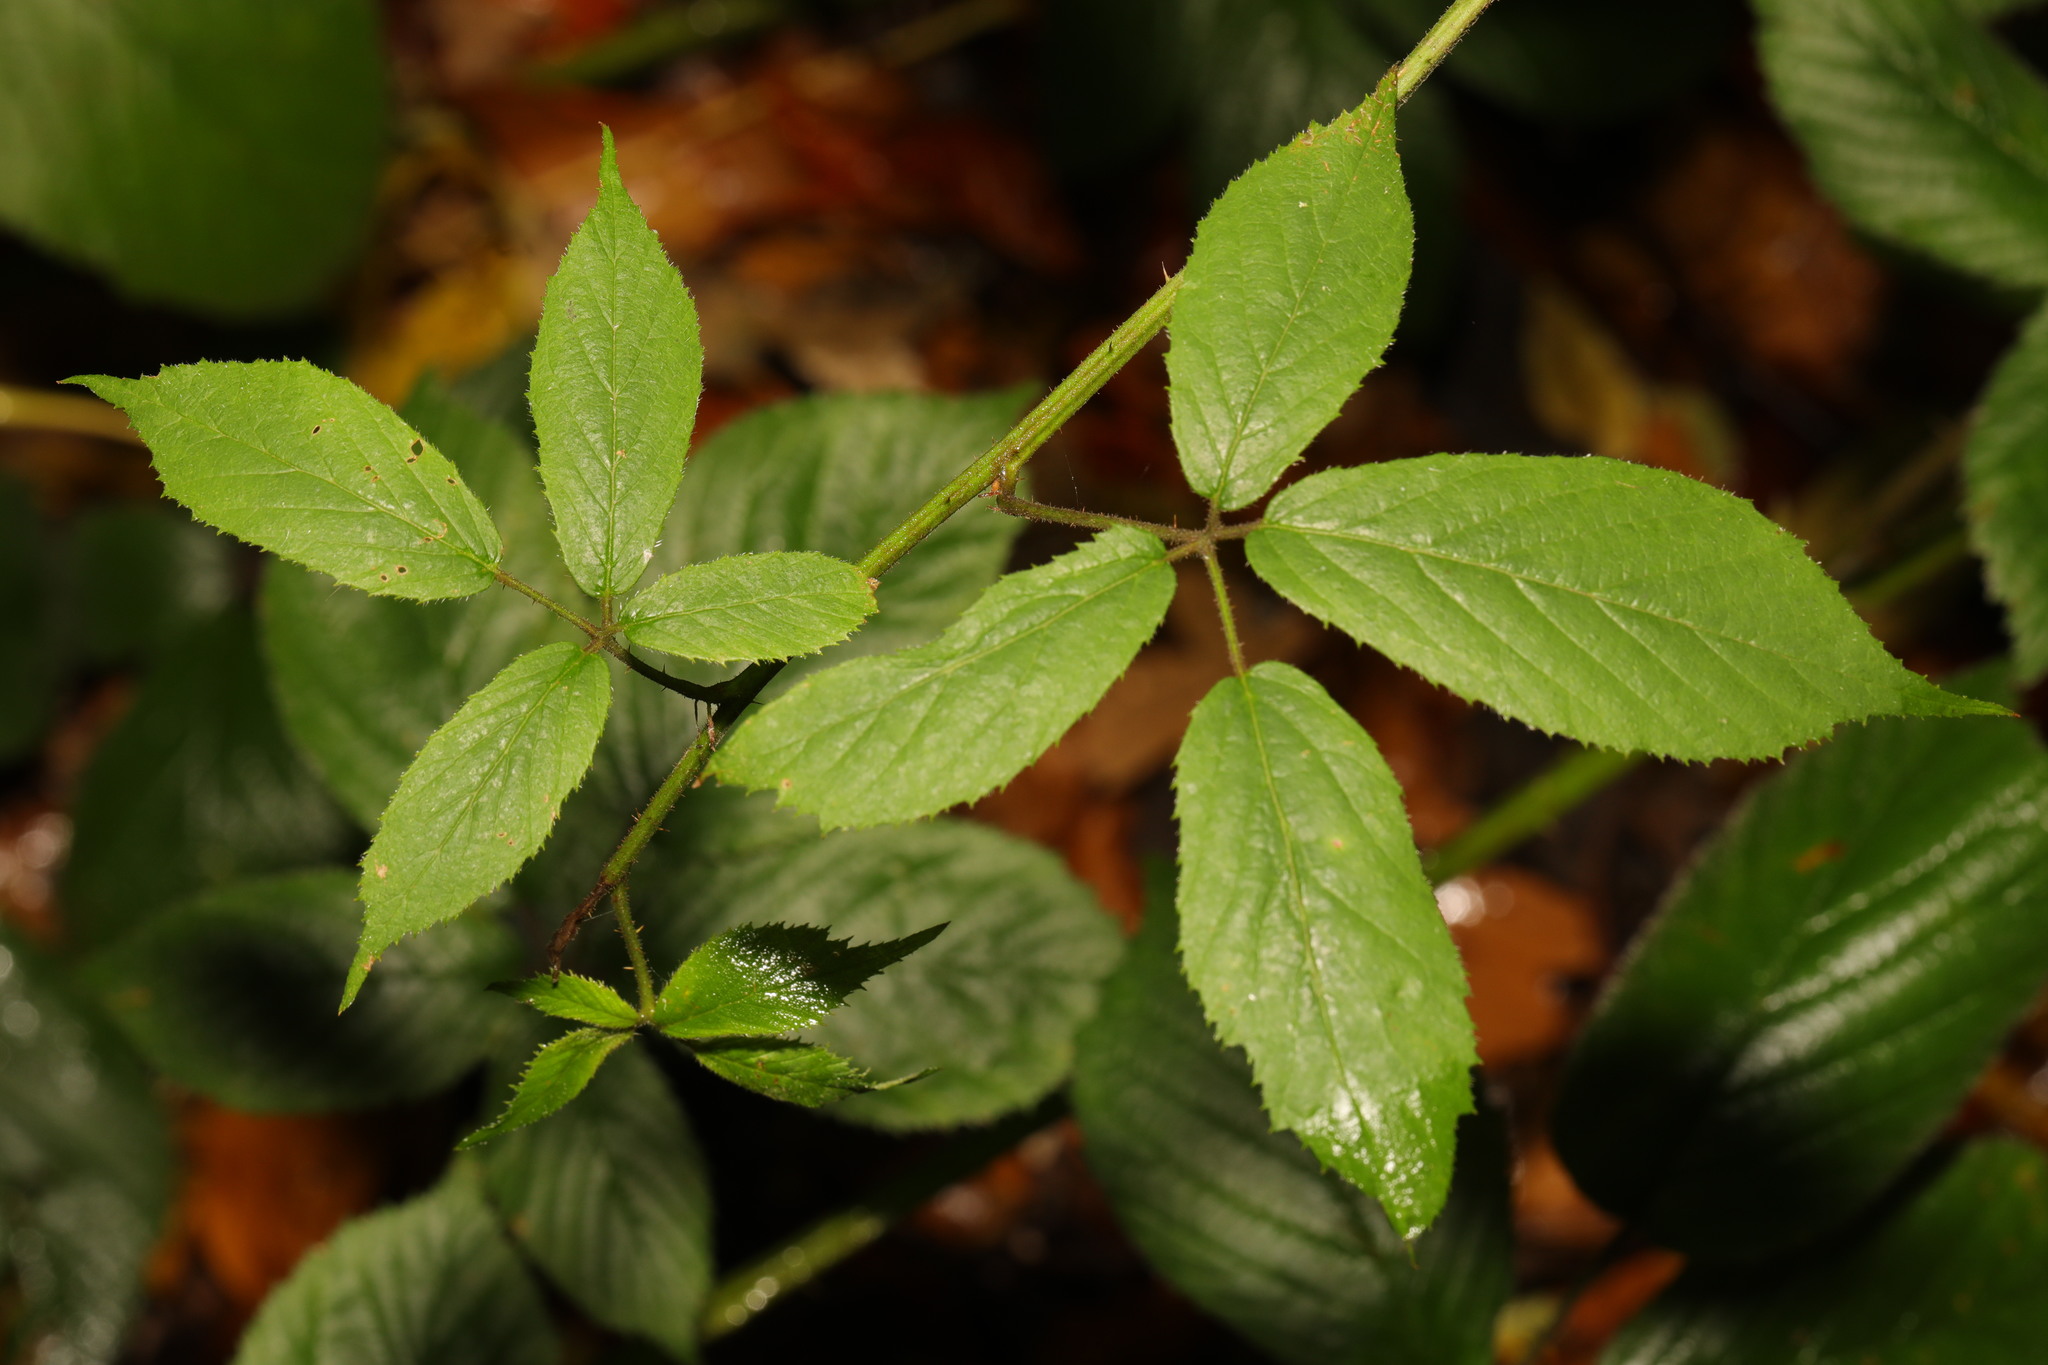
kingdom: Plantae
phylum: Tracheophyta
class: Magnoliopsida
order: Rosales
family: Rosaceae
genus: Rubus
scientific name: Rubus rufescens
